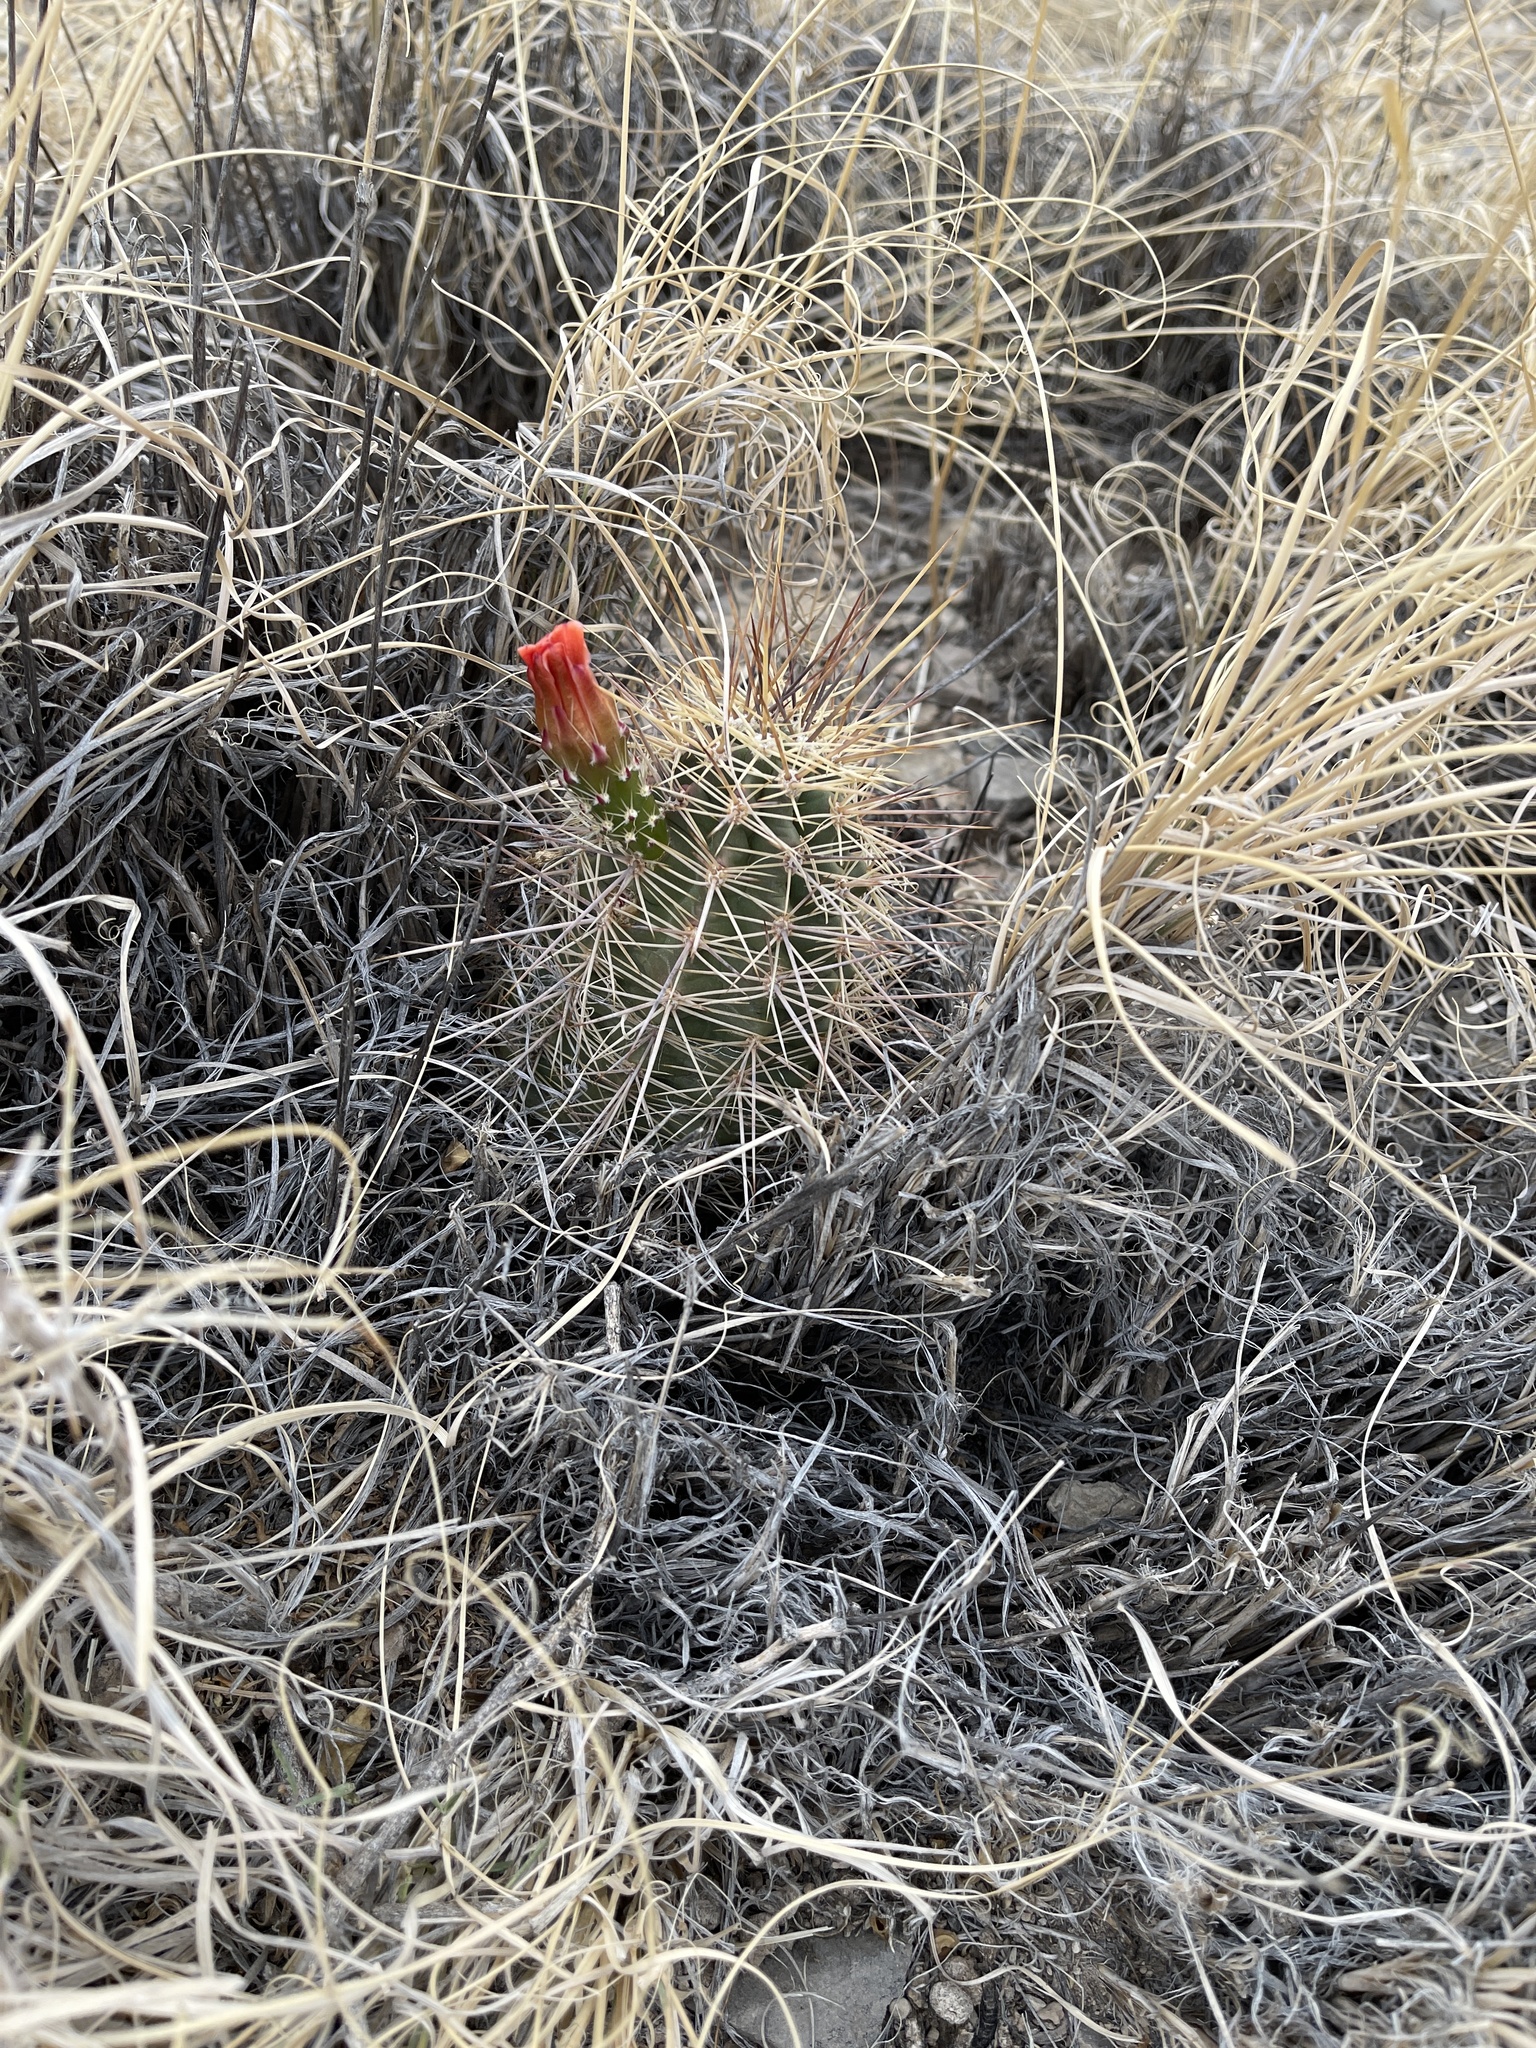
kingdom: Plantae
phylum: Tracheophyta
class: Magnoliopsida
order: Caryophyllales
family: Cactaceae
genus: Echinocereus
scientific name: Echinocereus coccineus
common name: Scarlet hedgehog cactus
